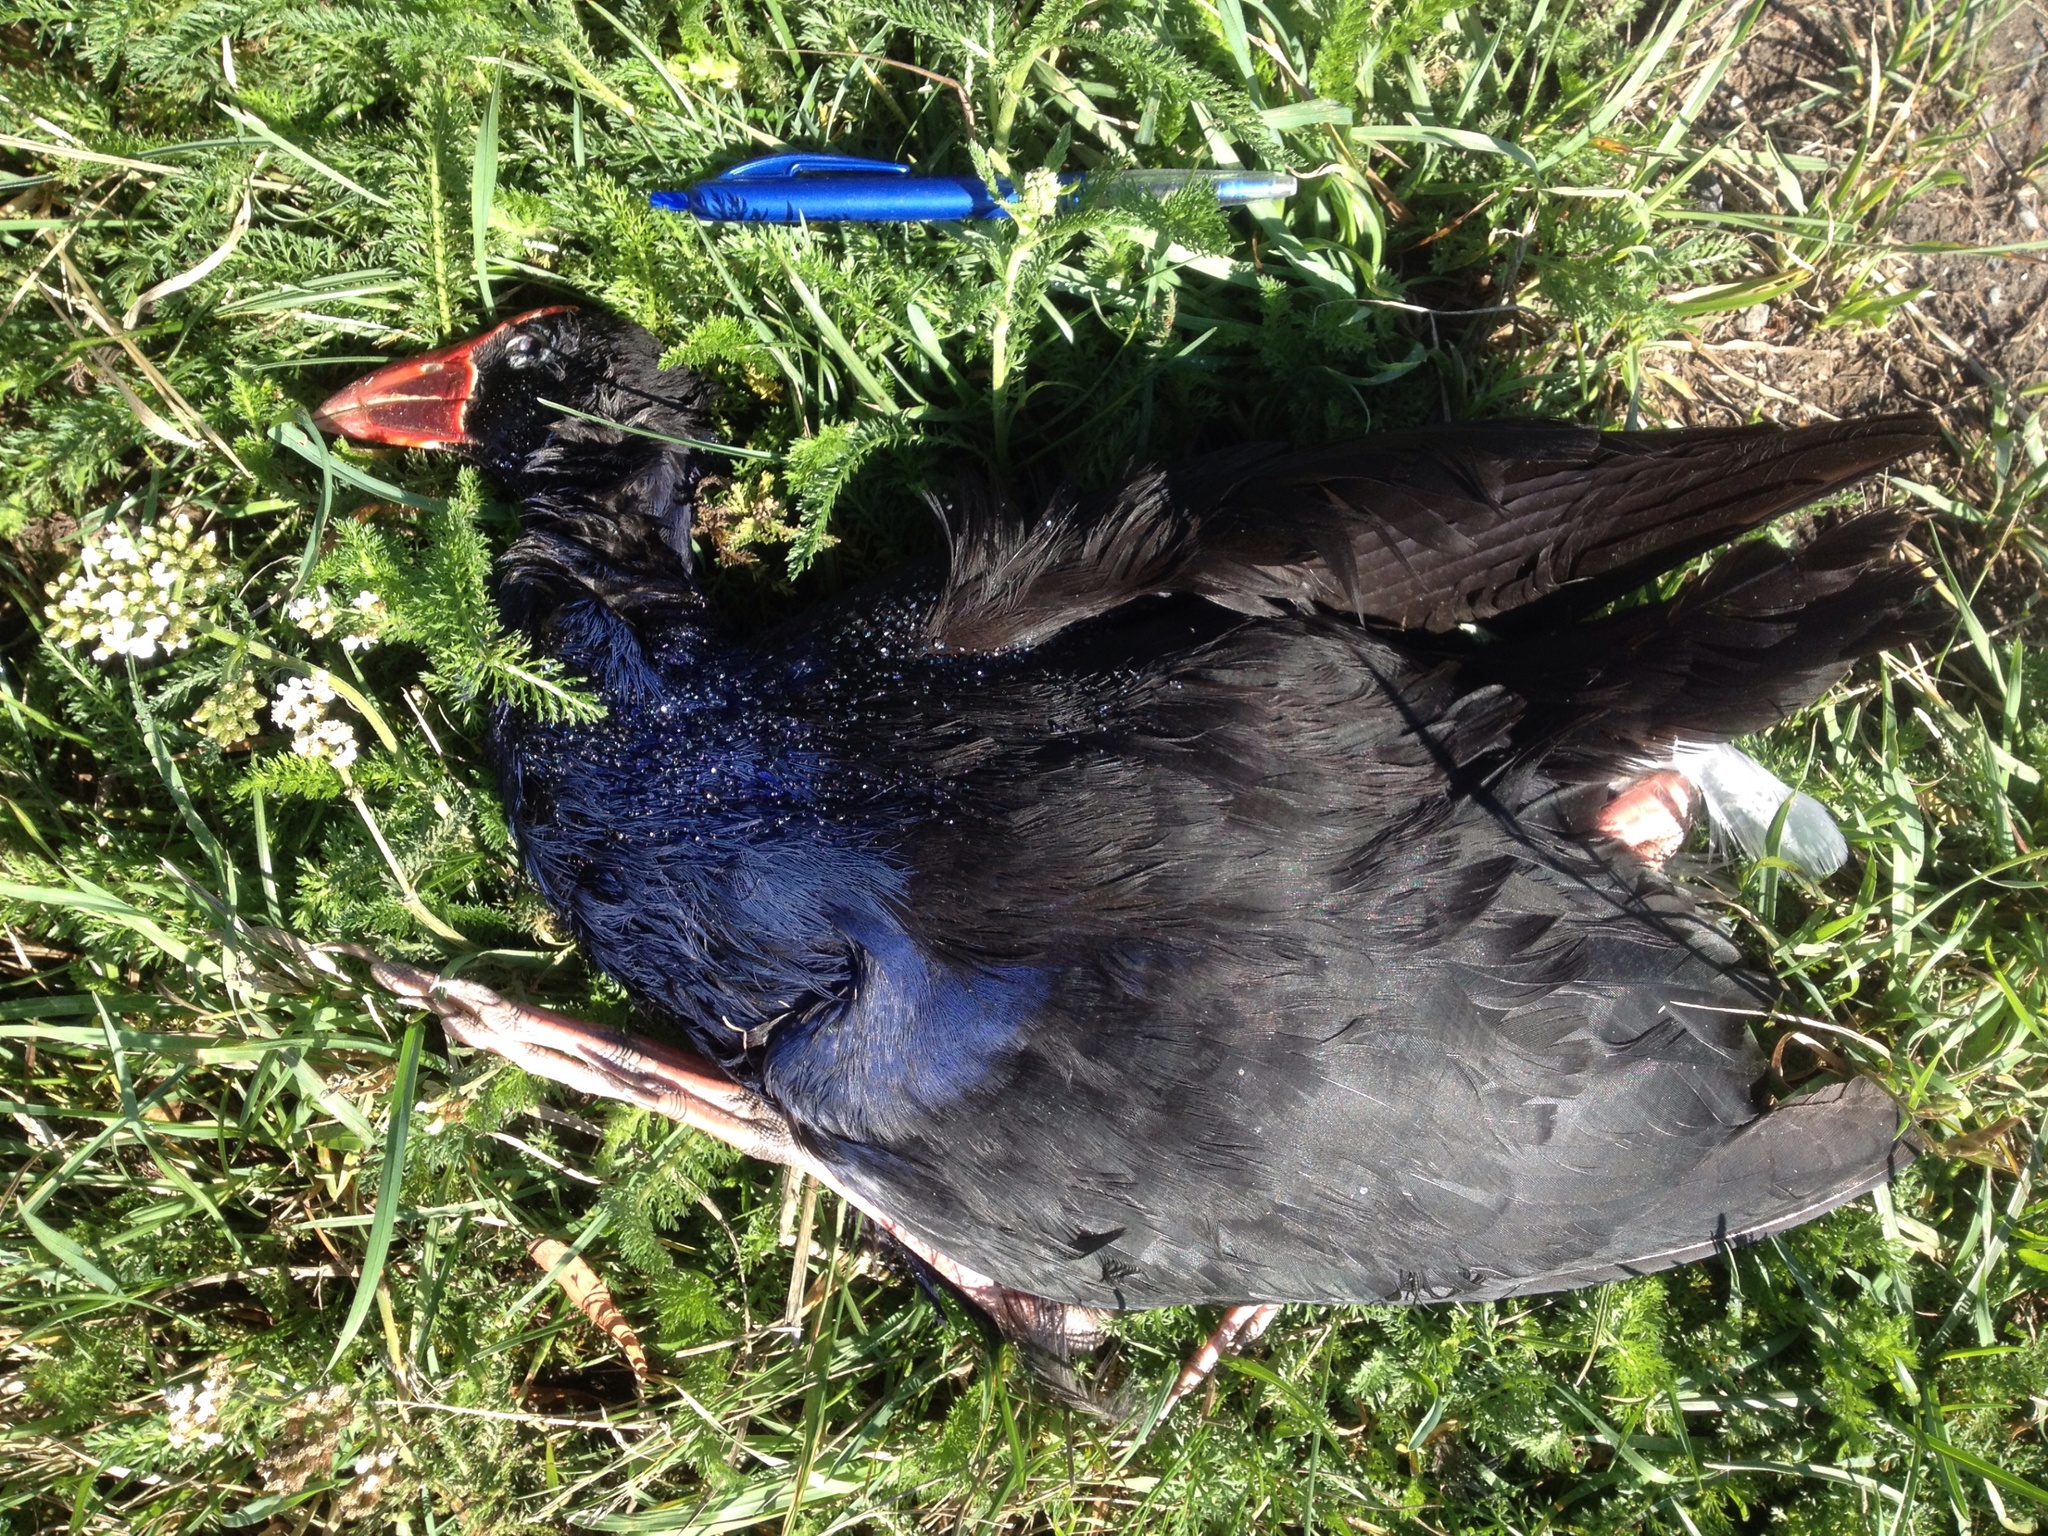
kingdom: Animalia
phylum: Chordata
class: Aves
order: Gruiformes
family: Rallidae
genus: Porphyrio
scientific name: Porphyrio melanotus
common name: Australasian swamphen
